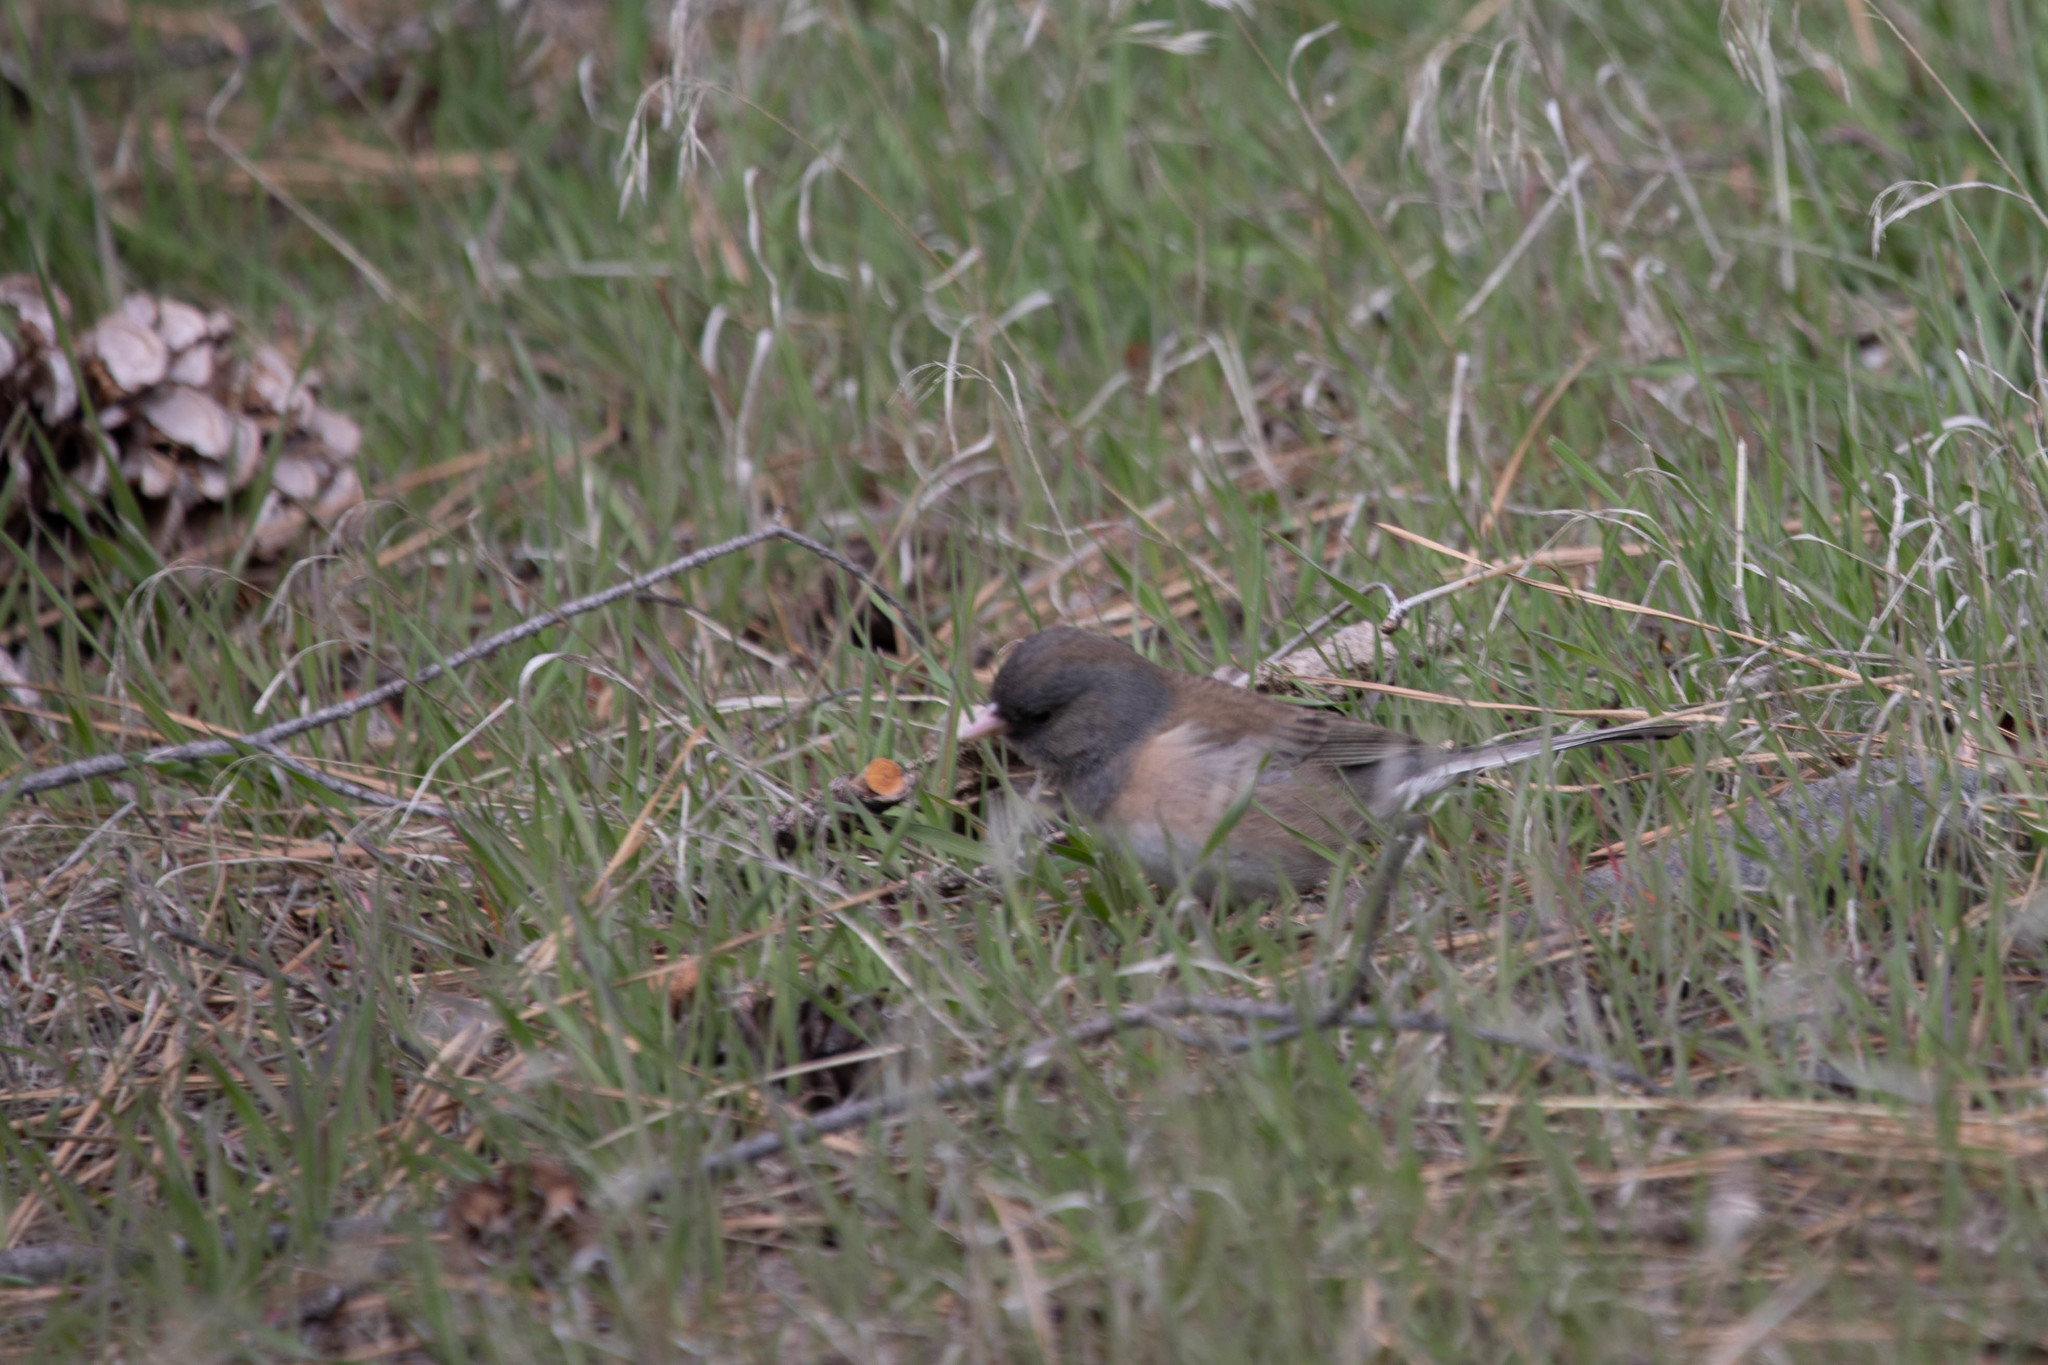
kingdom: Animalia
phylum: Chordata
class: Aves
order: Passeriformes
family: Passerellidae
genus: Junco
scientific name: Junco hyemalis
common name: Dark-eyed junco
